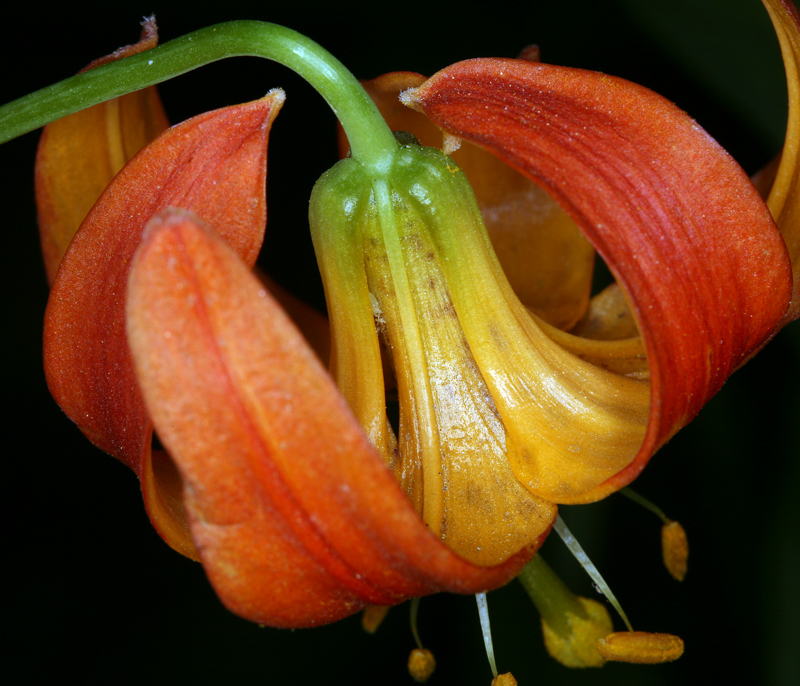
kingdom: Plantae
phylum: Tracheophyta
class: Liliopsida
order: Liliales
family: Liliaceae
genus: Lilium
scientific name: Lilium pardalinum
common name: Panther lily
